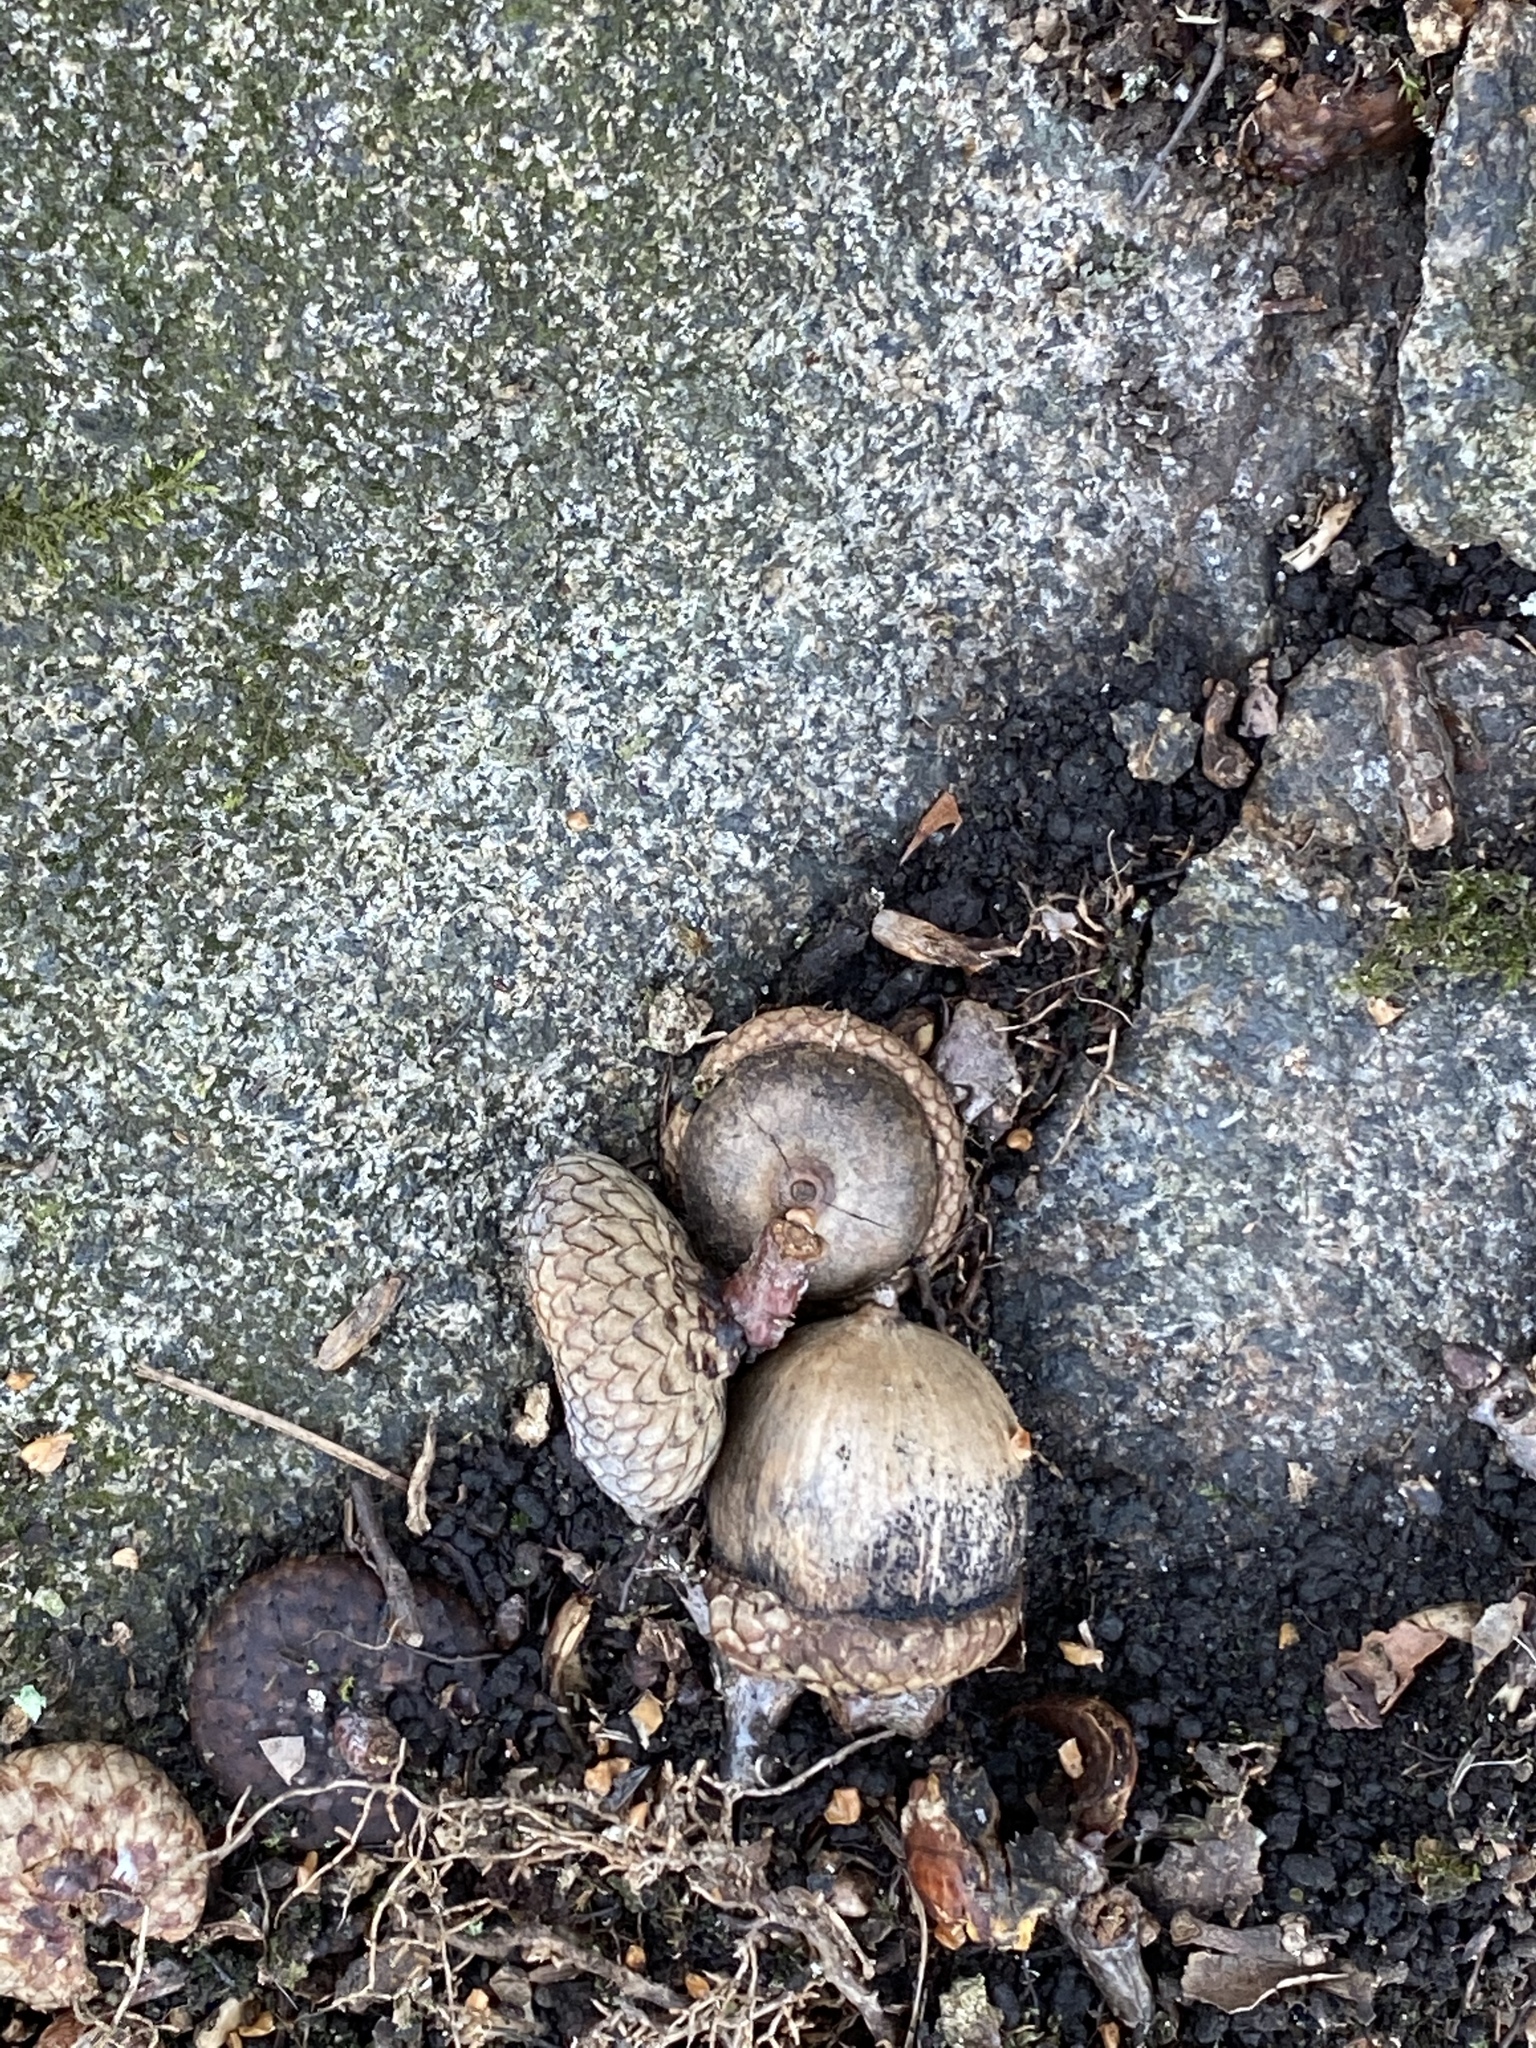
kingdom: Plantae
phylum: Tracheophyta
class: Magnoliopsida
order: Fagales
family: Fagaceae
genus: Quercus
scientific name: Quercus rubra
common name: Red oak
